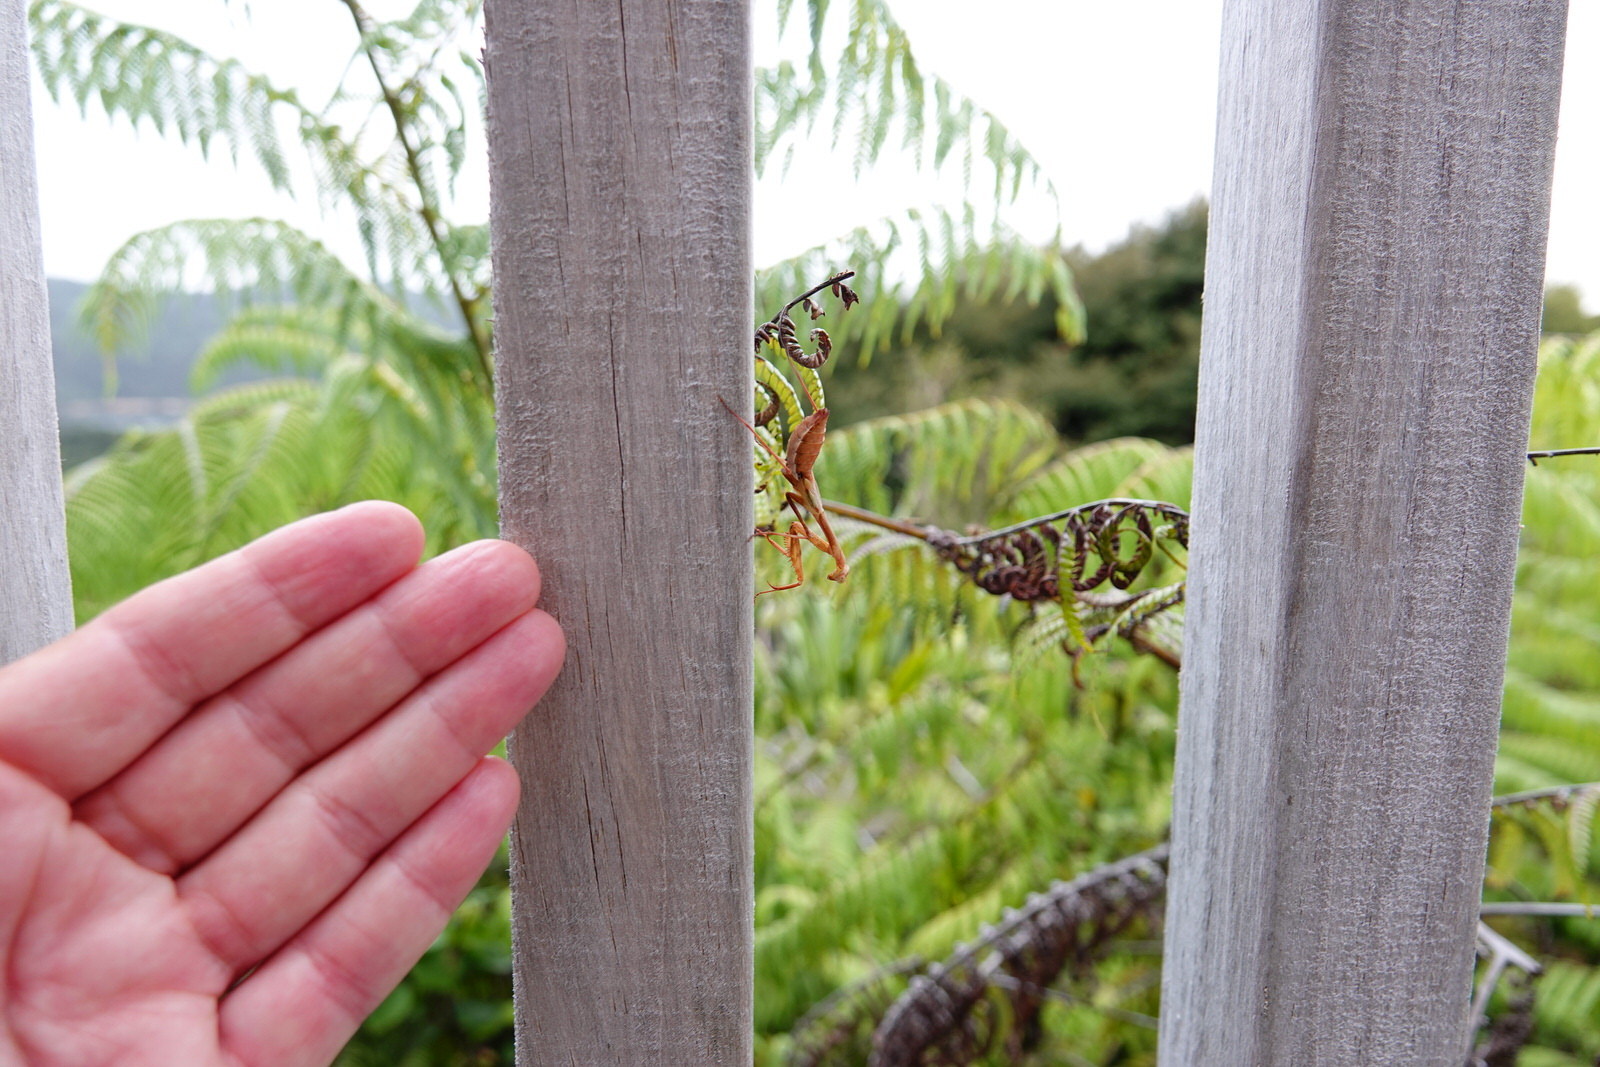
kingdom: Animalia
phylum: Arthropoda
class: Insecta
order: Mantodea
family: Miomantidae
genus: Miomantis
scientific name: Miomantis caffra
